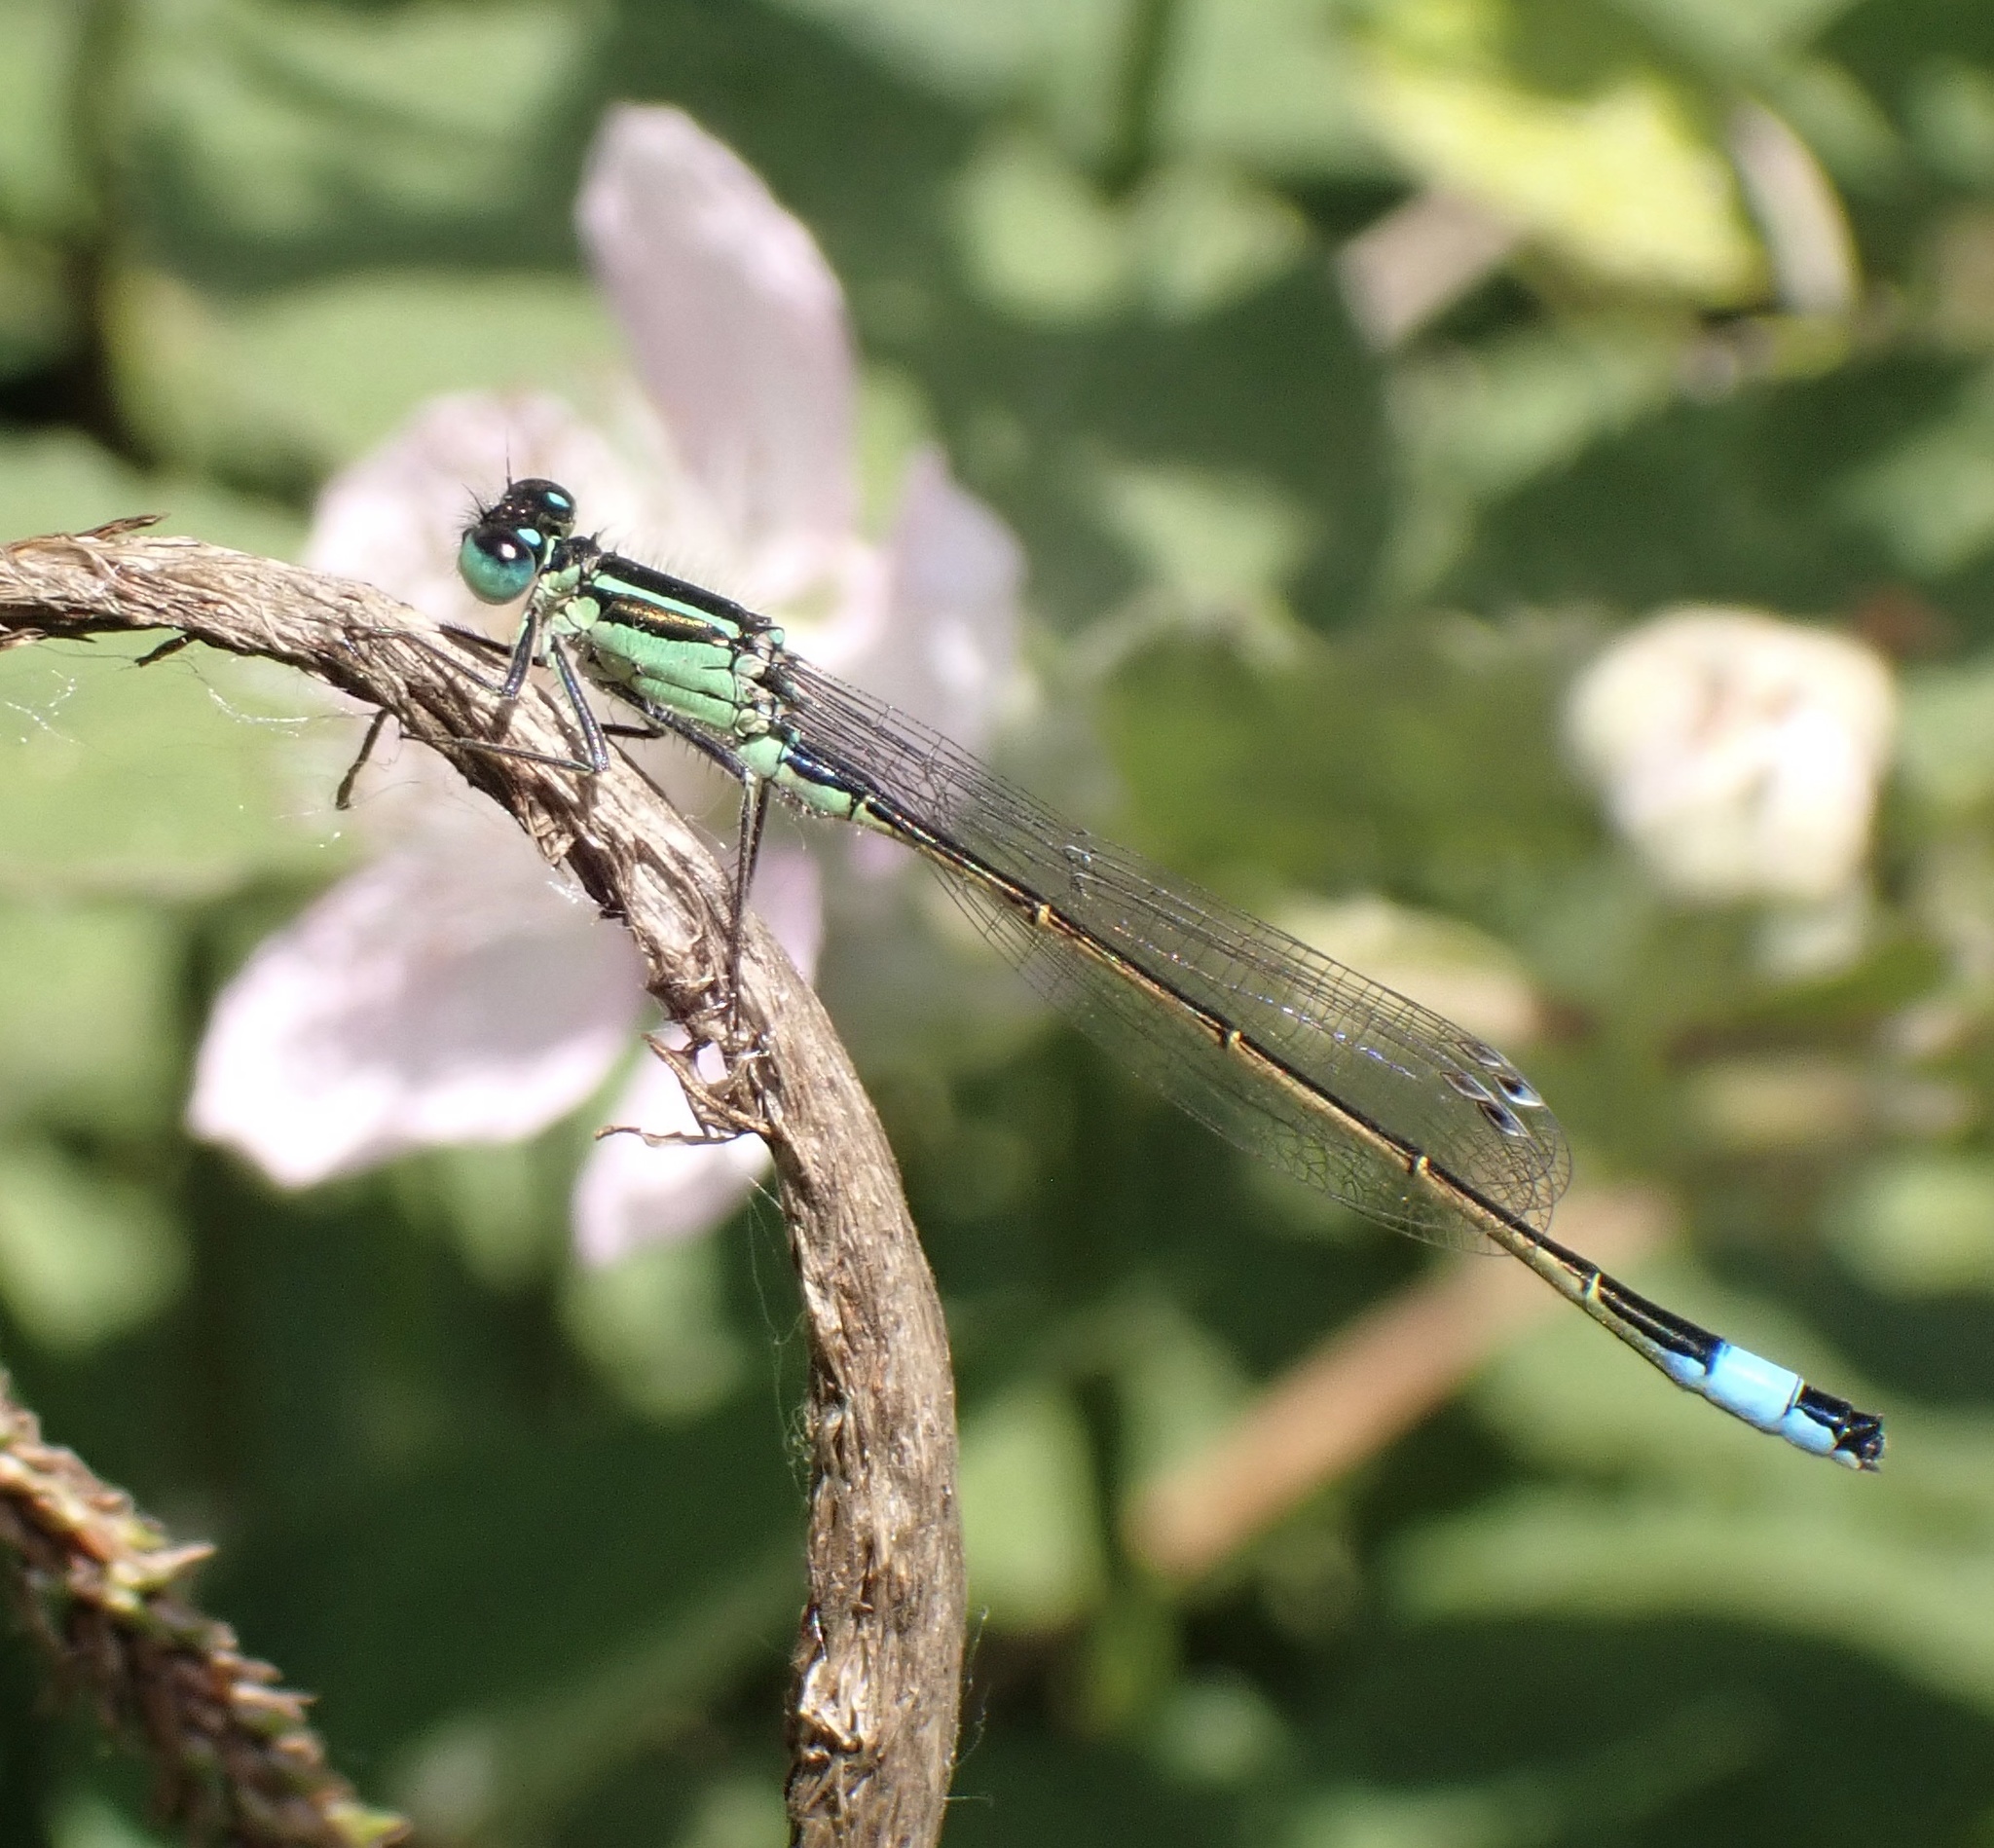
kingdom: Animalia
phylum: Arthropoda
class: Insecta
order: Odonata
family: Coenagrionidae
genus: Ischnura
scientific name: Ischnura elegans
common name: Blue-tailed damselfly
